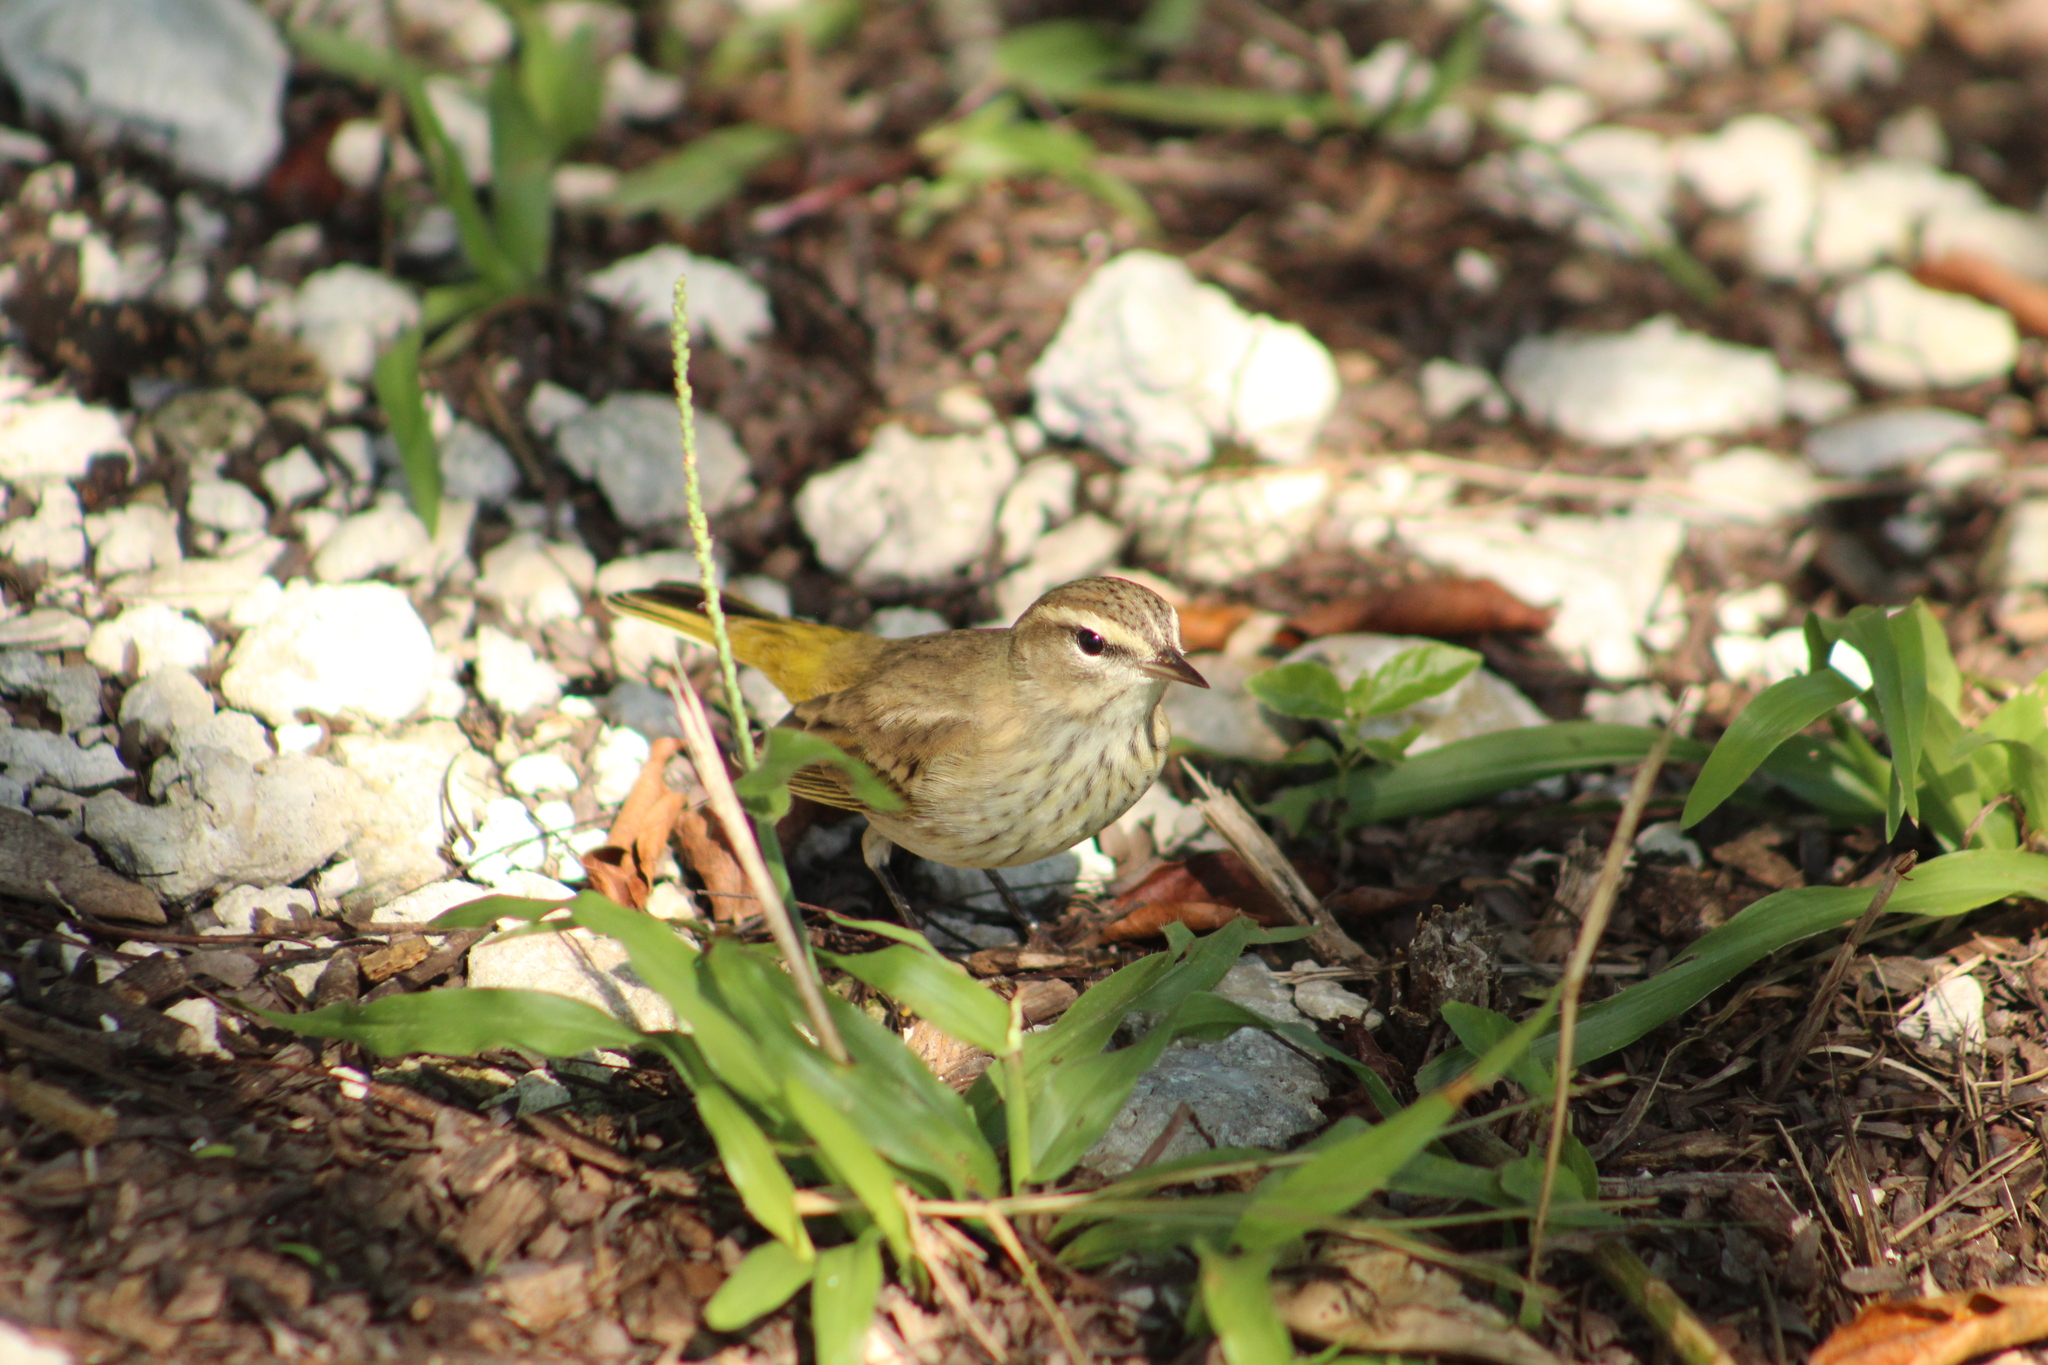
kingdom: Animalia
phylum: Chordata
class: Aves
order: Passeriformes
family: Parulidae
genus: Setophaga
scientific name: Setophaga palmarum
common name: Palm warbler
